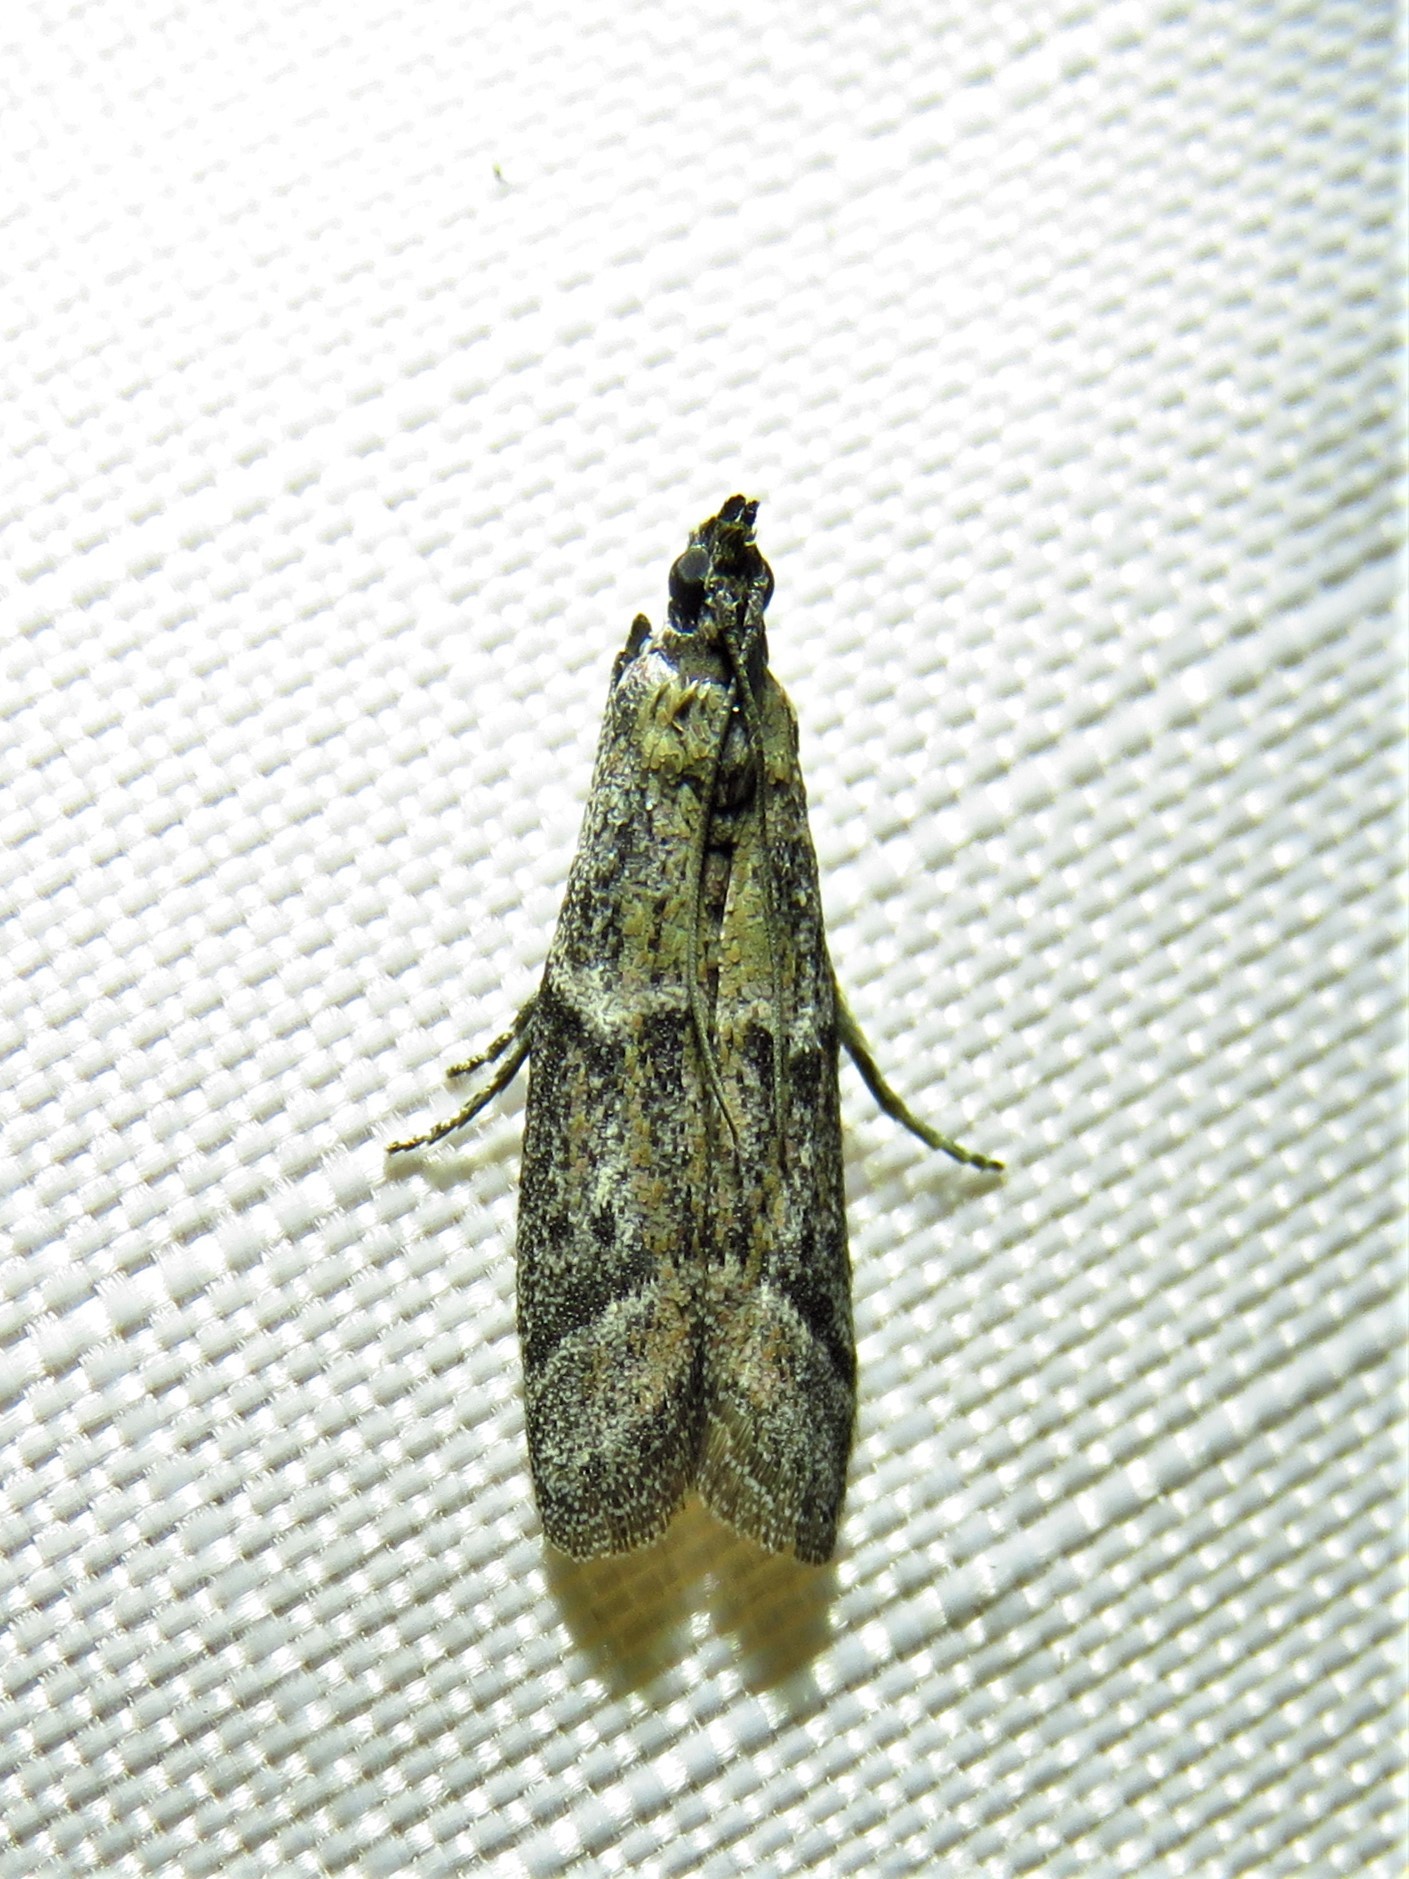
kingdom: Animalia
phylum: Arthropoda
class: Insecta
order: Lepidoptera
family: Pyralidae
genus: Ephestiodes
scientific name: Ephestiodes gilvescentella
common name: Moth
